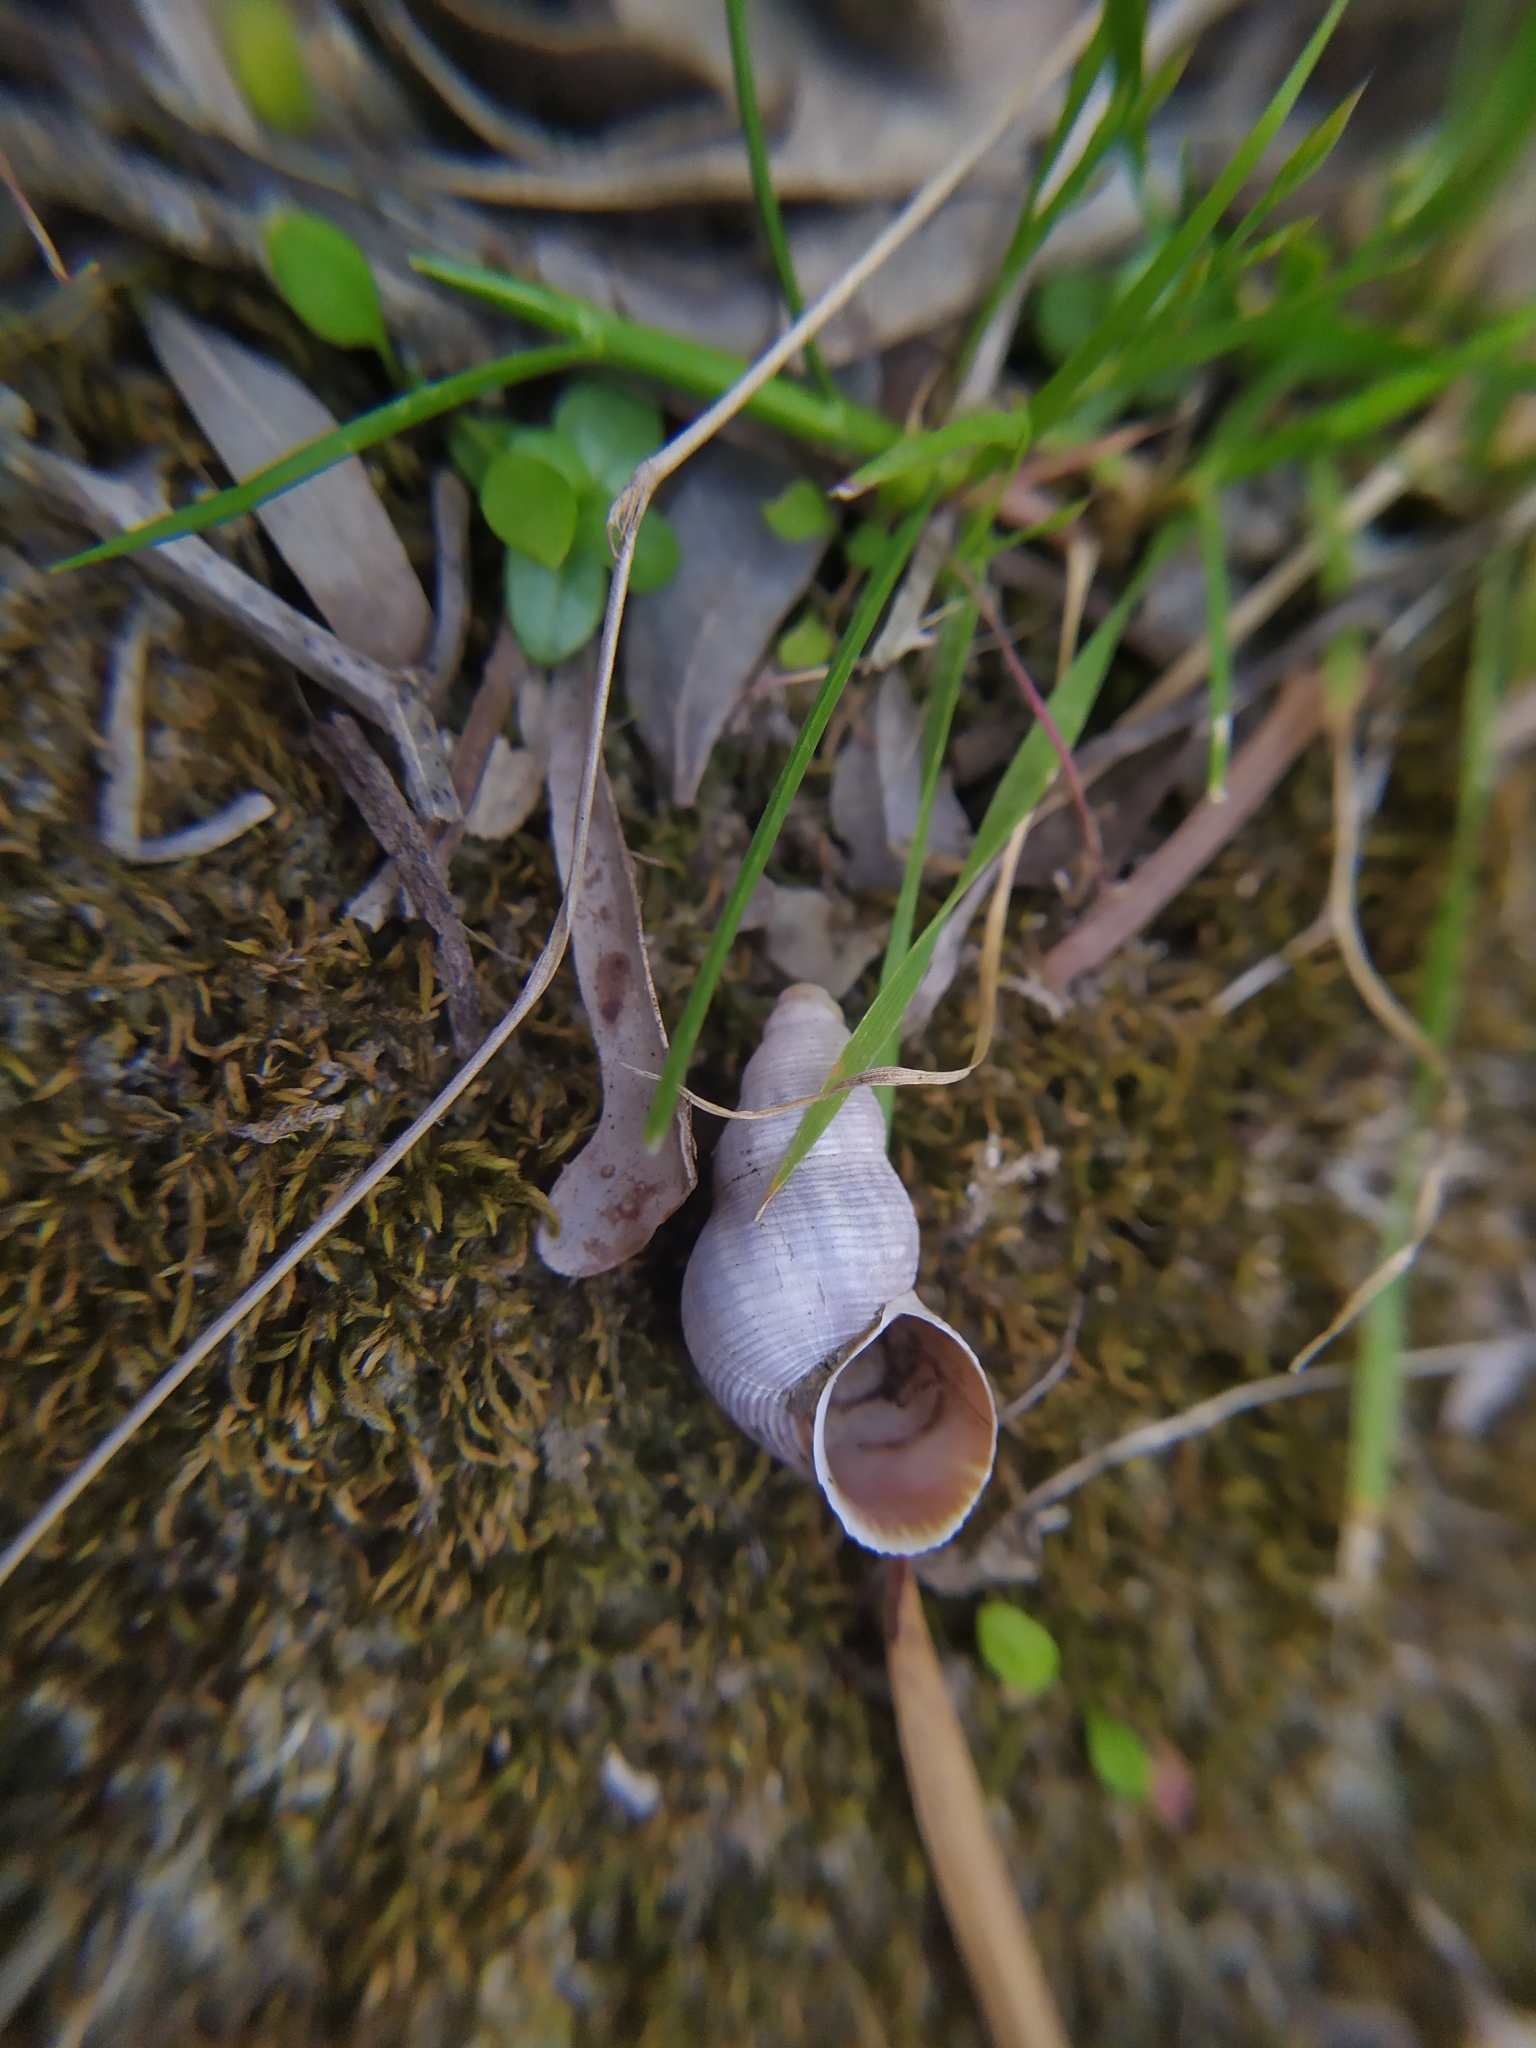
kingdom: Animalia
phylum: Mollusca
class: Gastropoda
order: Littorinimorpha
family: Pomatiidae
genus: Tudorella
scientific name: Tudorella ferruginea
